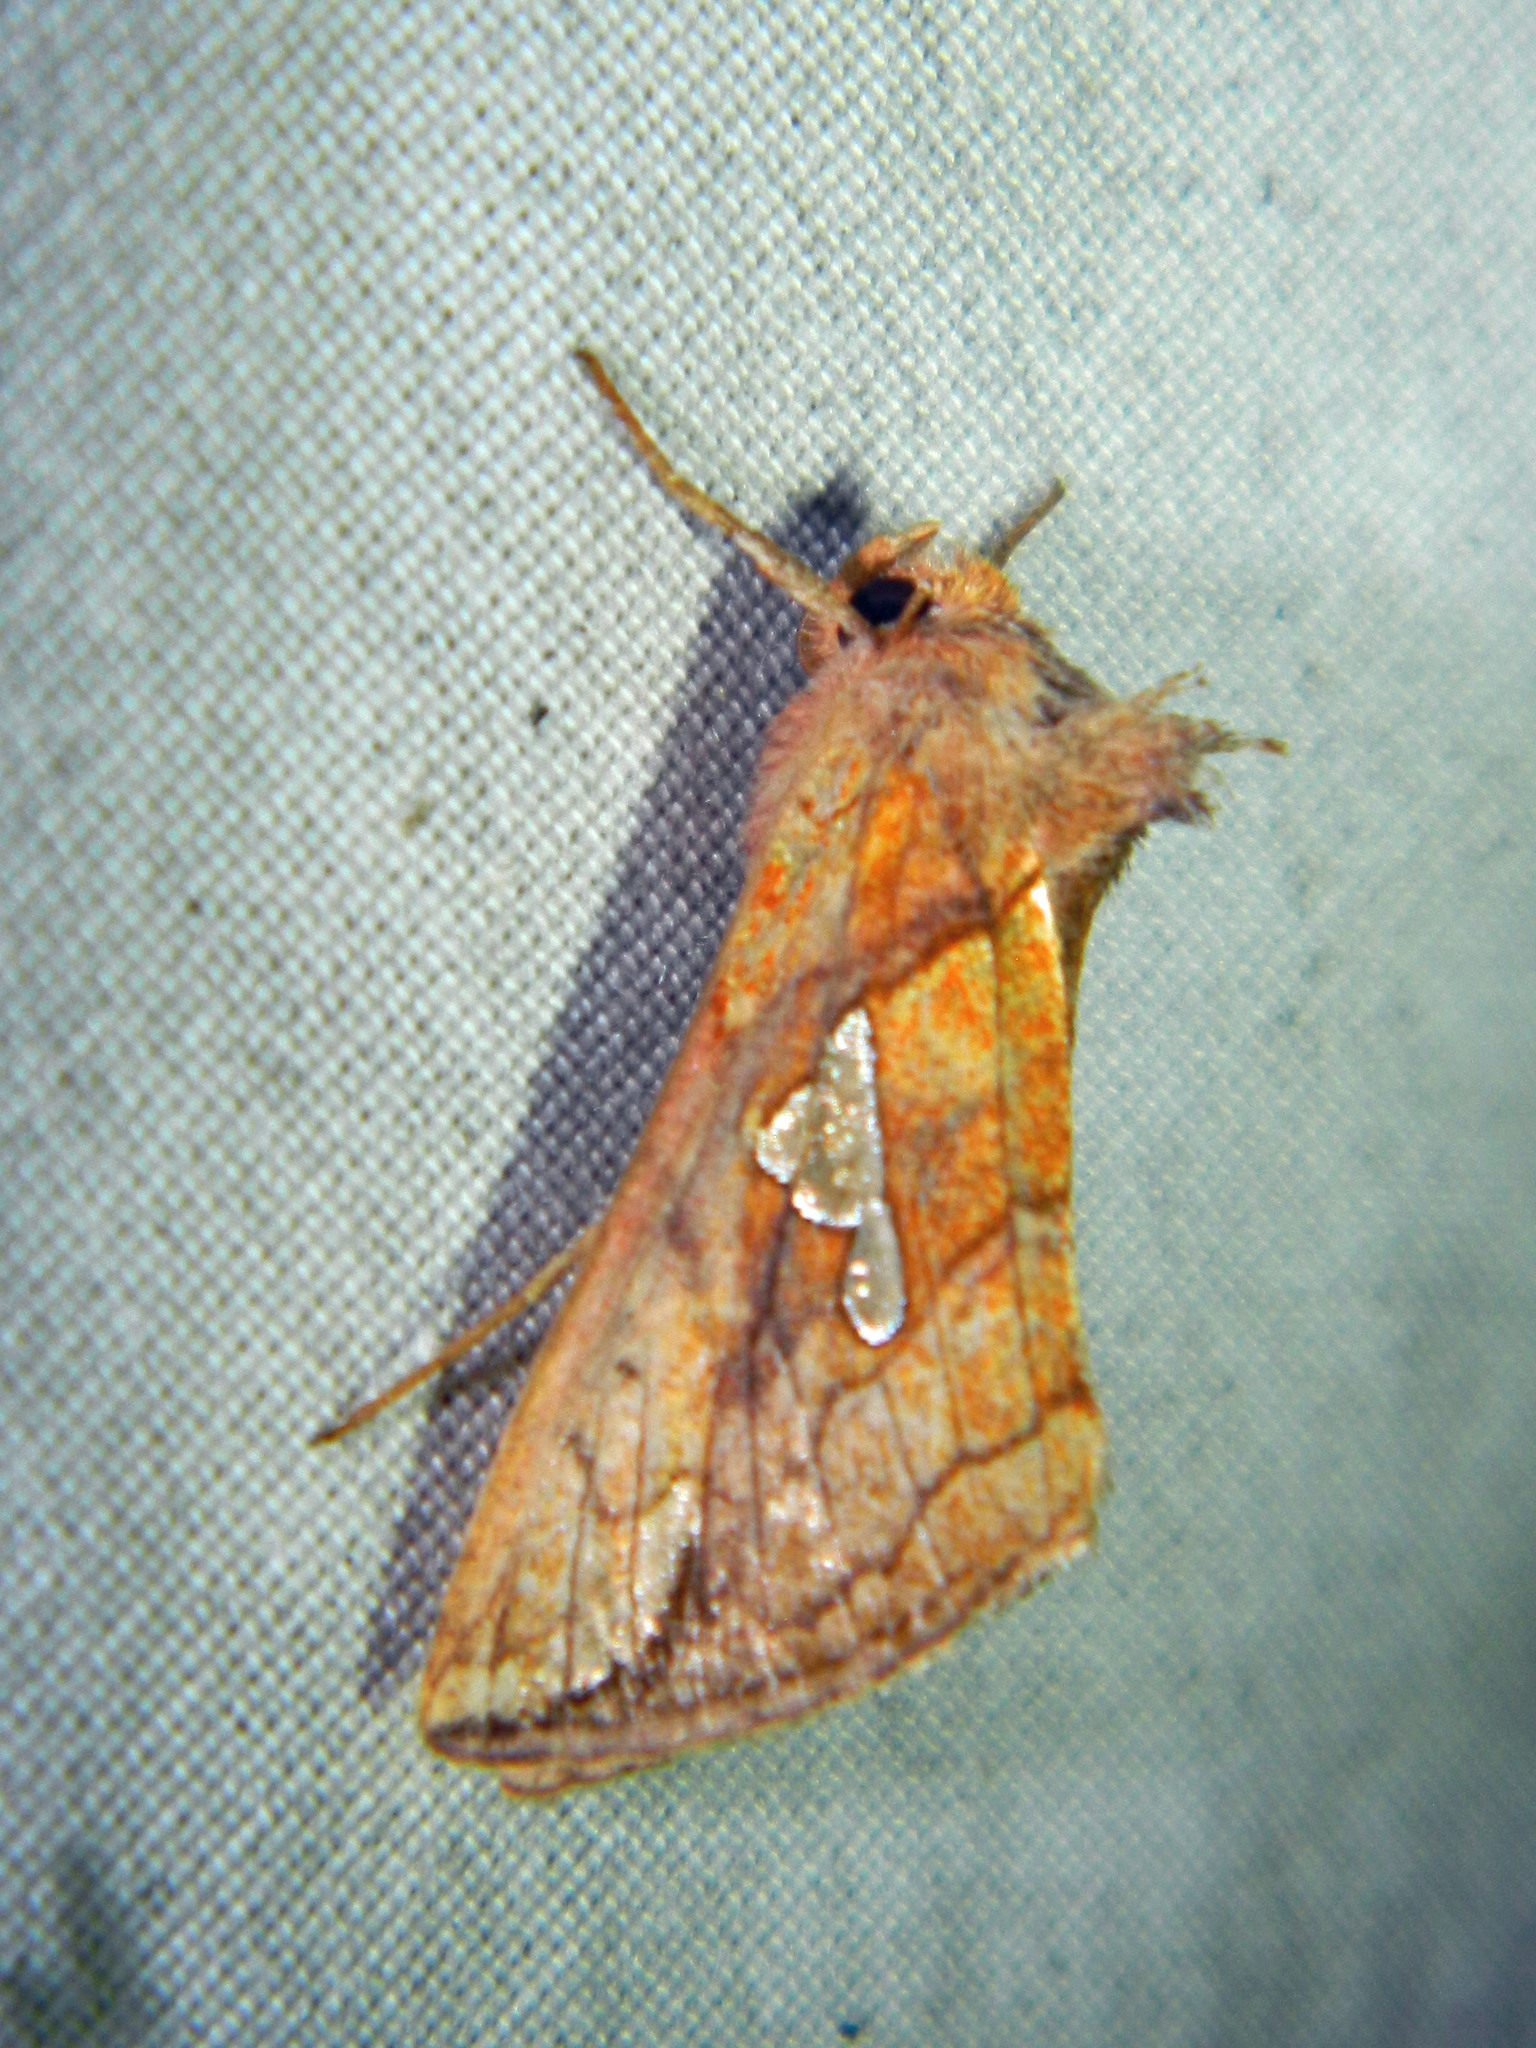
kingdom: Animalia
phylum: Arthropoda
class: Insecta
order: Lepidoptera
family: Noctuidae
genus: Plusia
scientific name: Plusia putnami
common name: Lempke's gold spot
